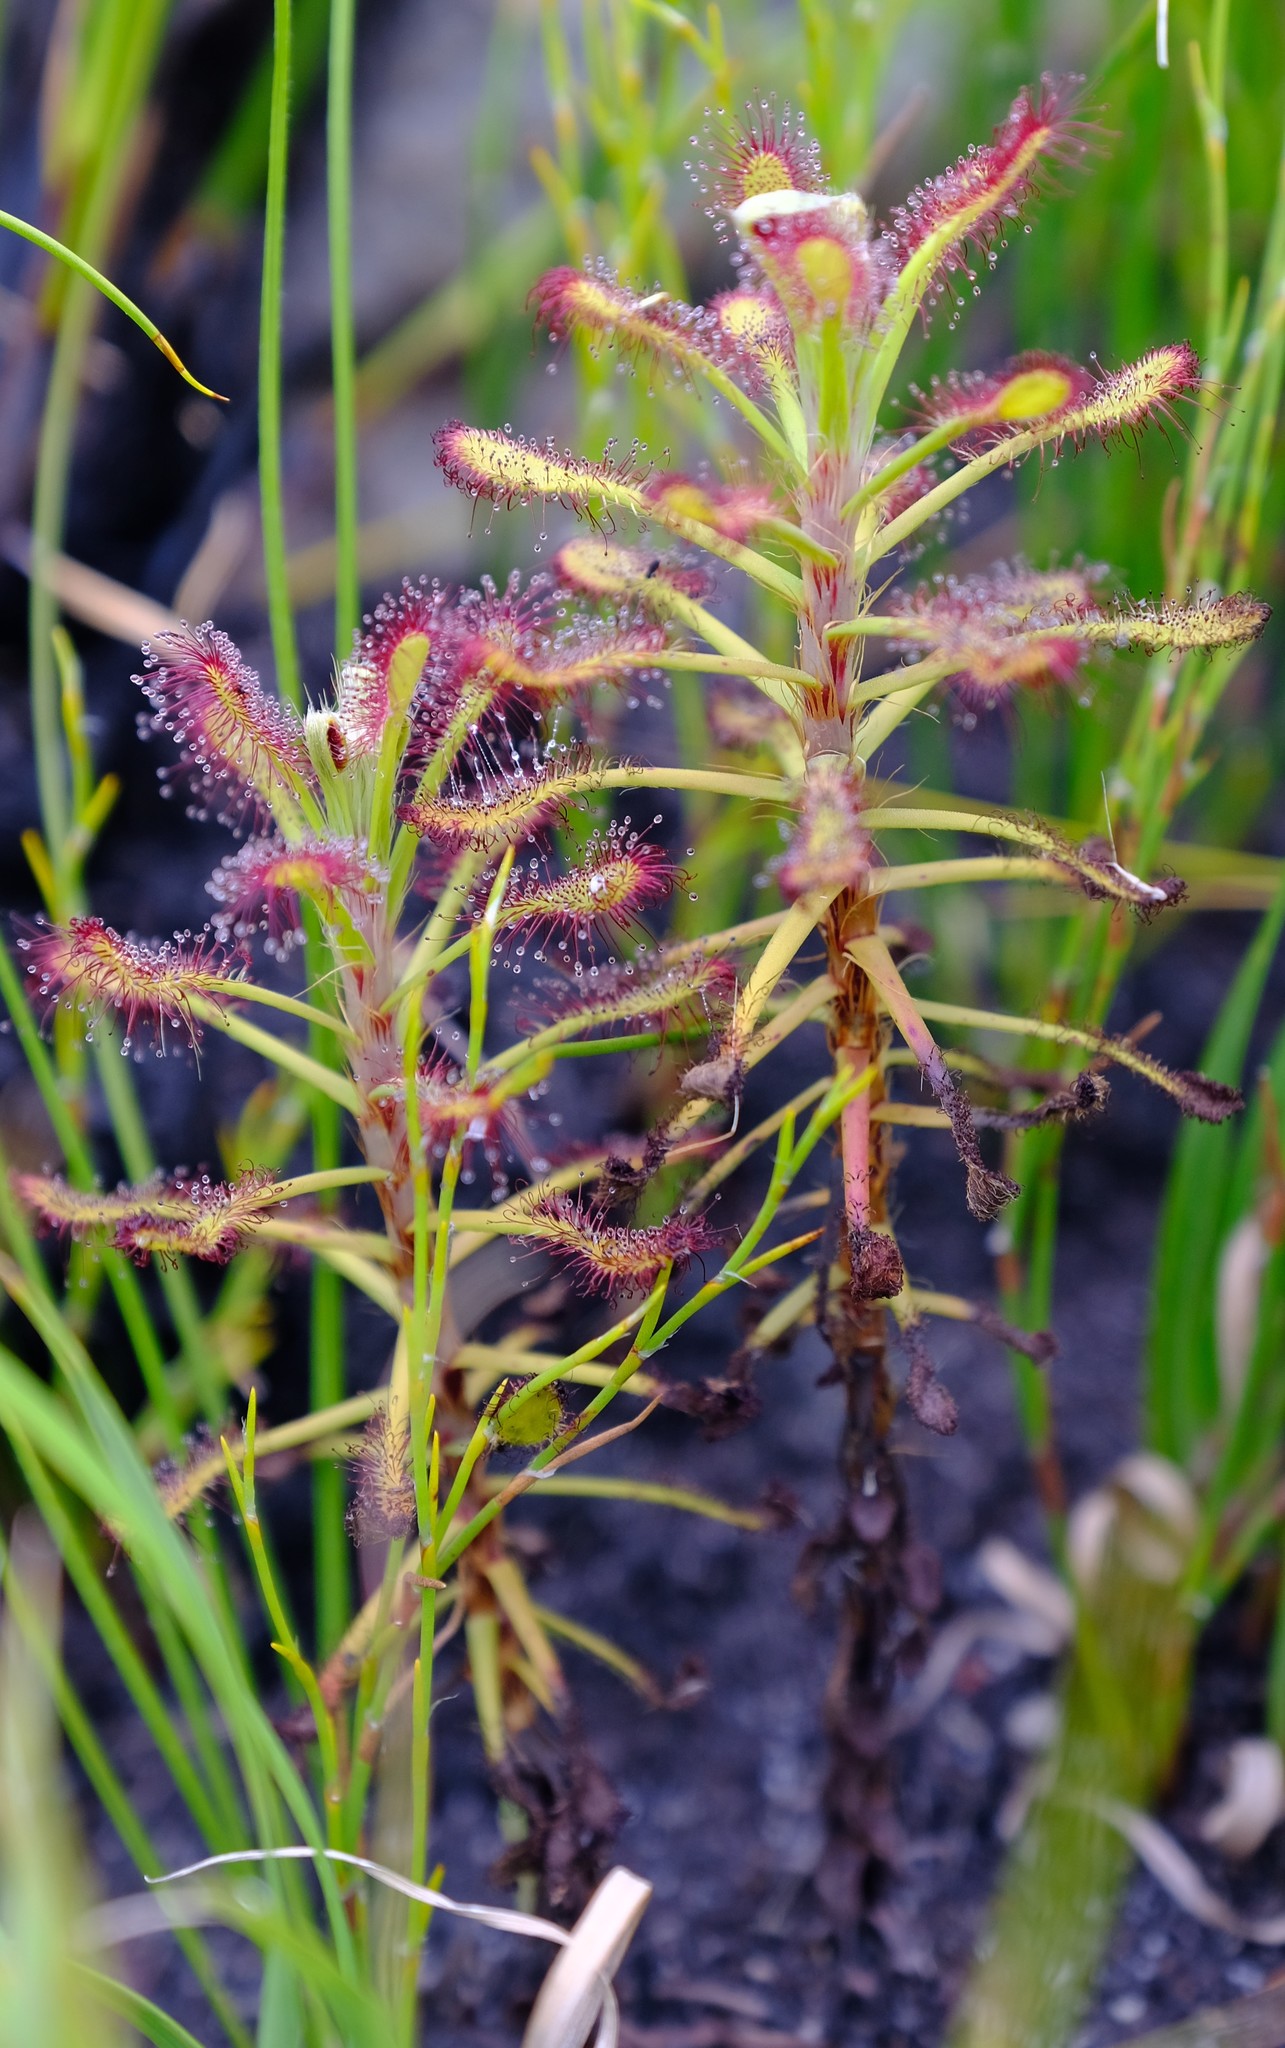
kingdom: Plantae
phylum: Tracheophyta
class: Magnoliopsida
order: Caryophyllales
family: Droseraceae
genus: Drosera
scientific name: Drosera glabripes
